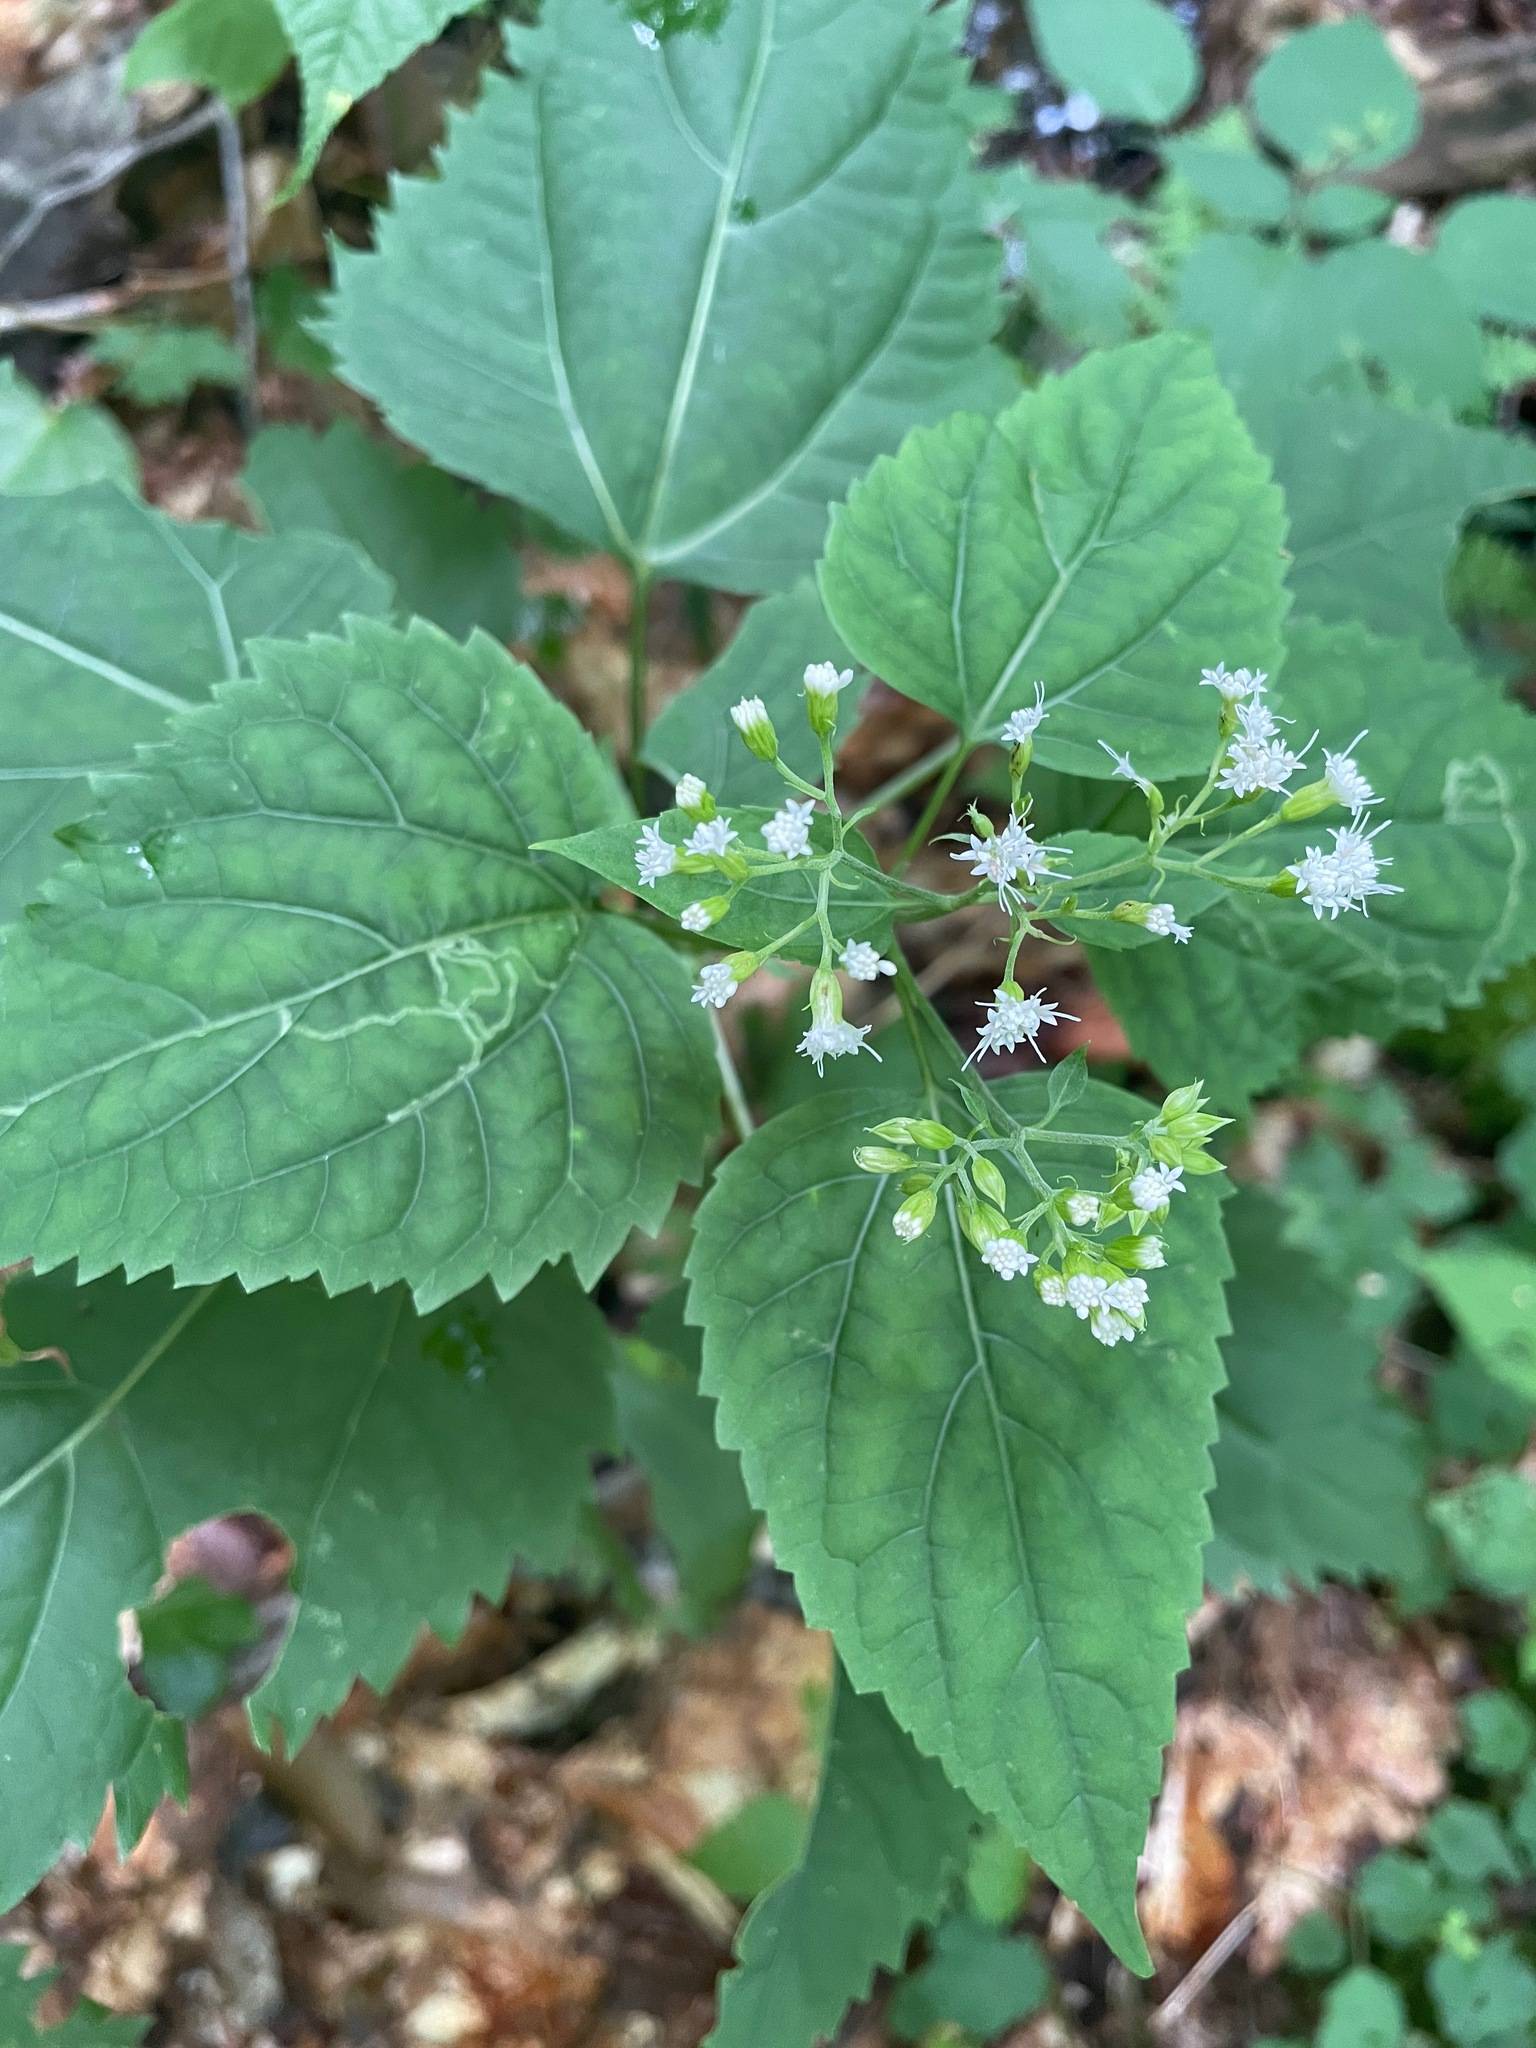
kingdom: Plantae
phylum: Tracheophyta
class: Magnoliopsida
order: Asterales
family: Asteraceae
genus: Ageratina
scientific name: Ageratina altissima
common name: White snakeroot
